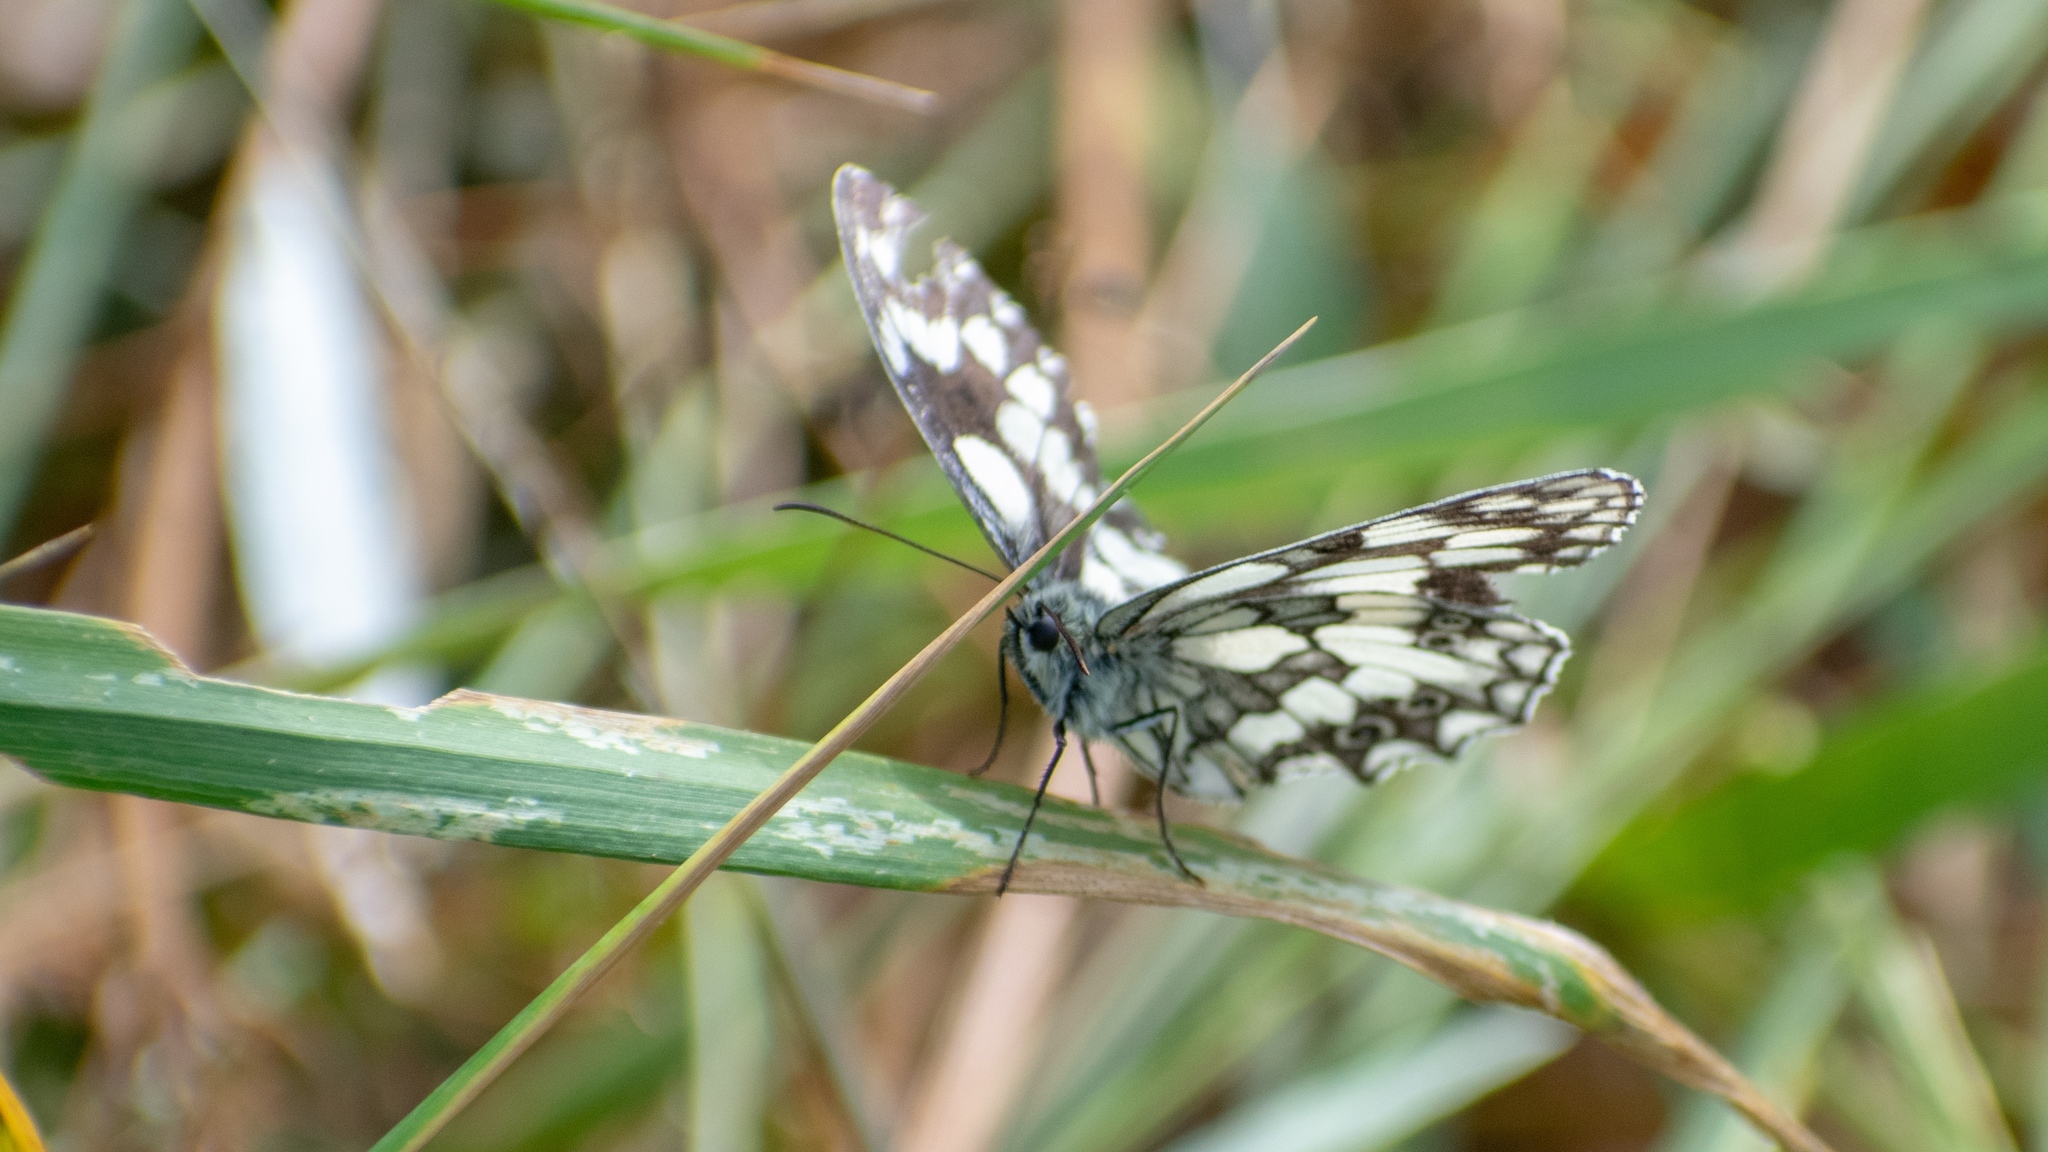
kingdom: Animalia
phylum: Arthropoda
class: Insecta
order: Lepidoptera
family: Nymphalidae
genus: Melanargia
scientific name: Melanargia galathea
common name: Marbled white
